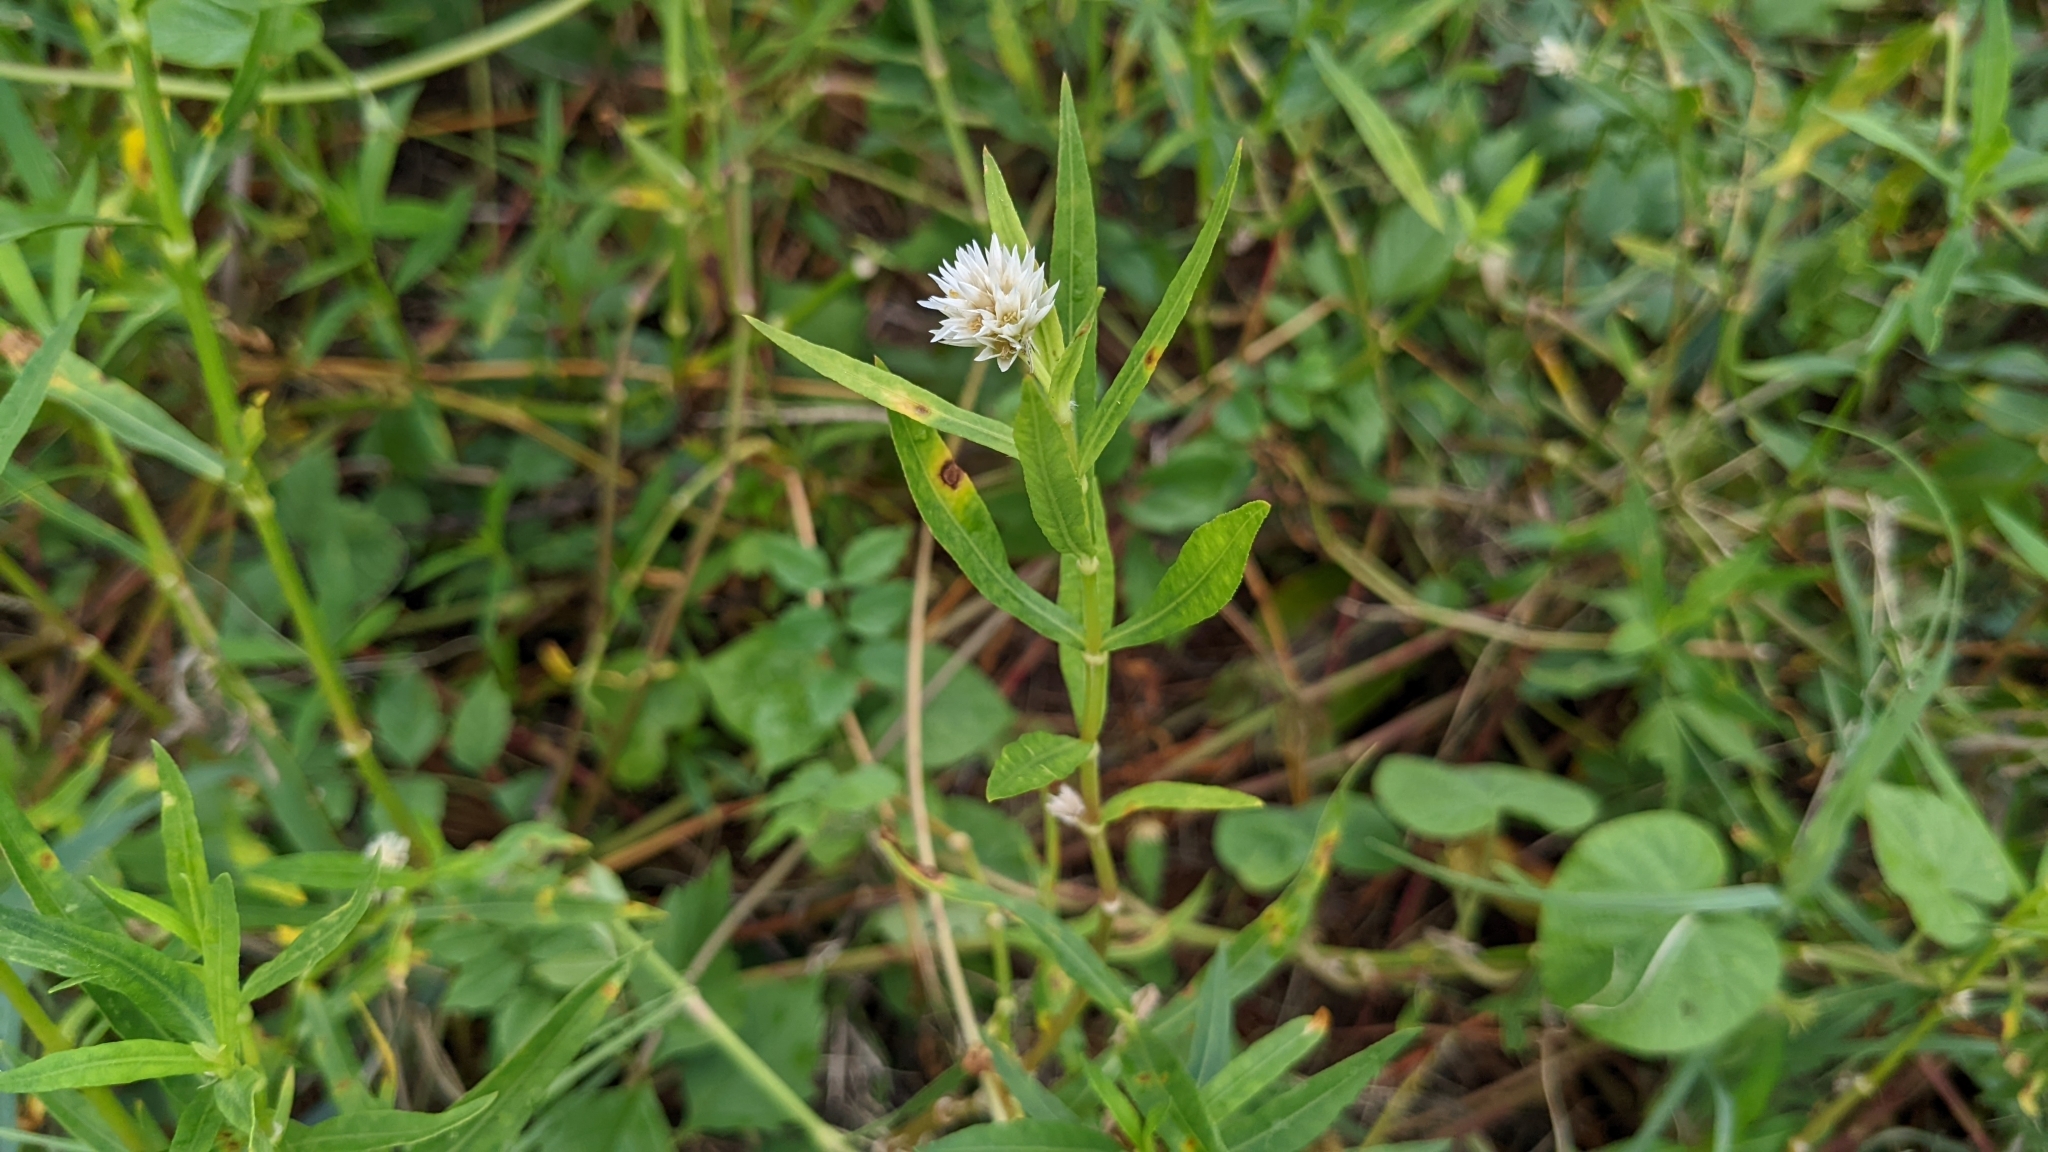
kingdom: Plantae
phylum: Tracheophyta
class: Magnoliopsida
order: Caryophyllales
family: Amaranthaceae
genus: Alternanthera
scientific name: Alternanthera philoxeroides
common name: Alligatorweed
